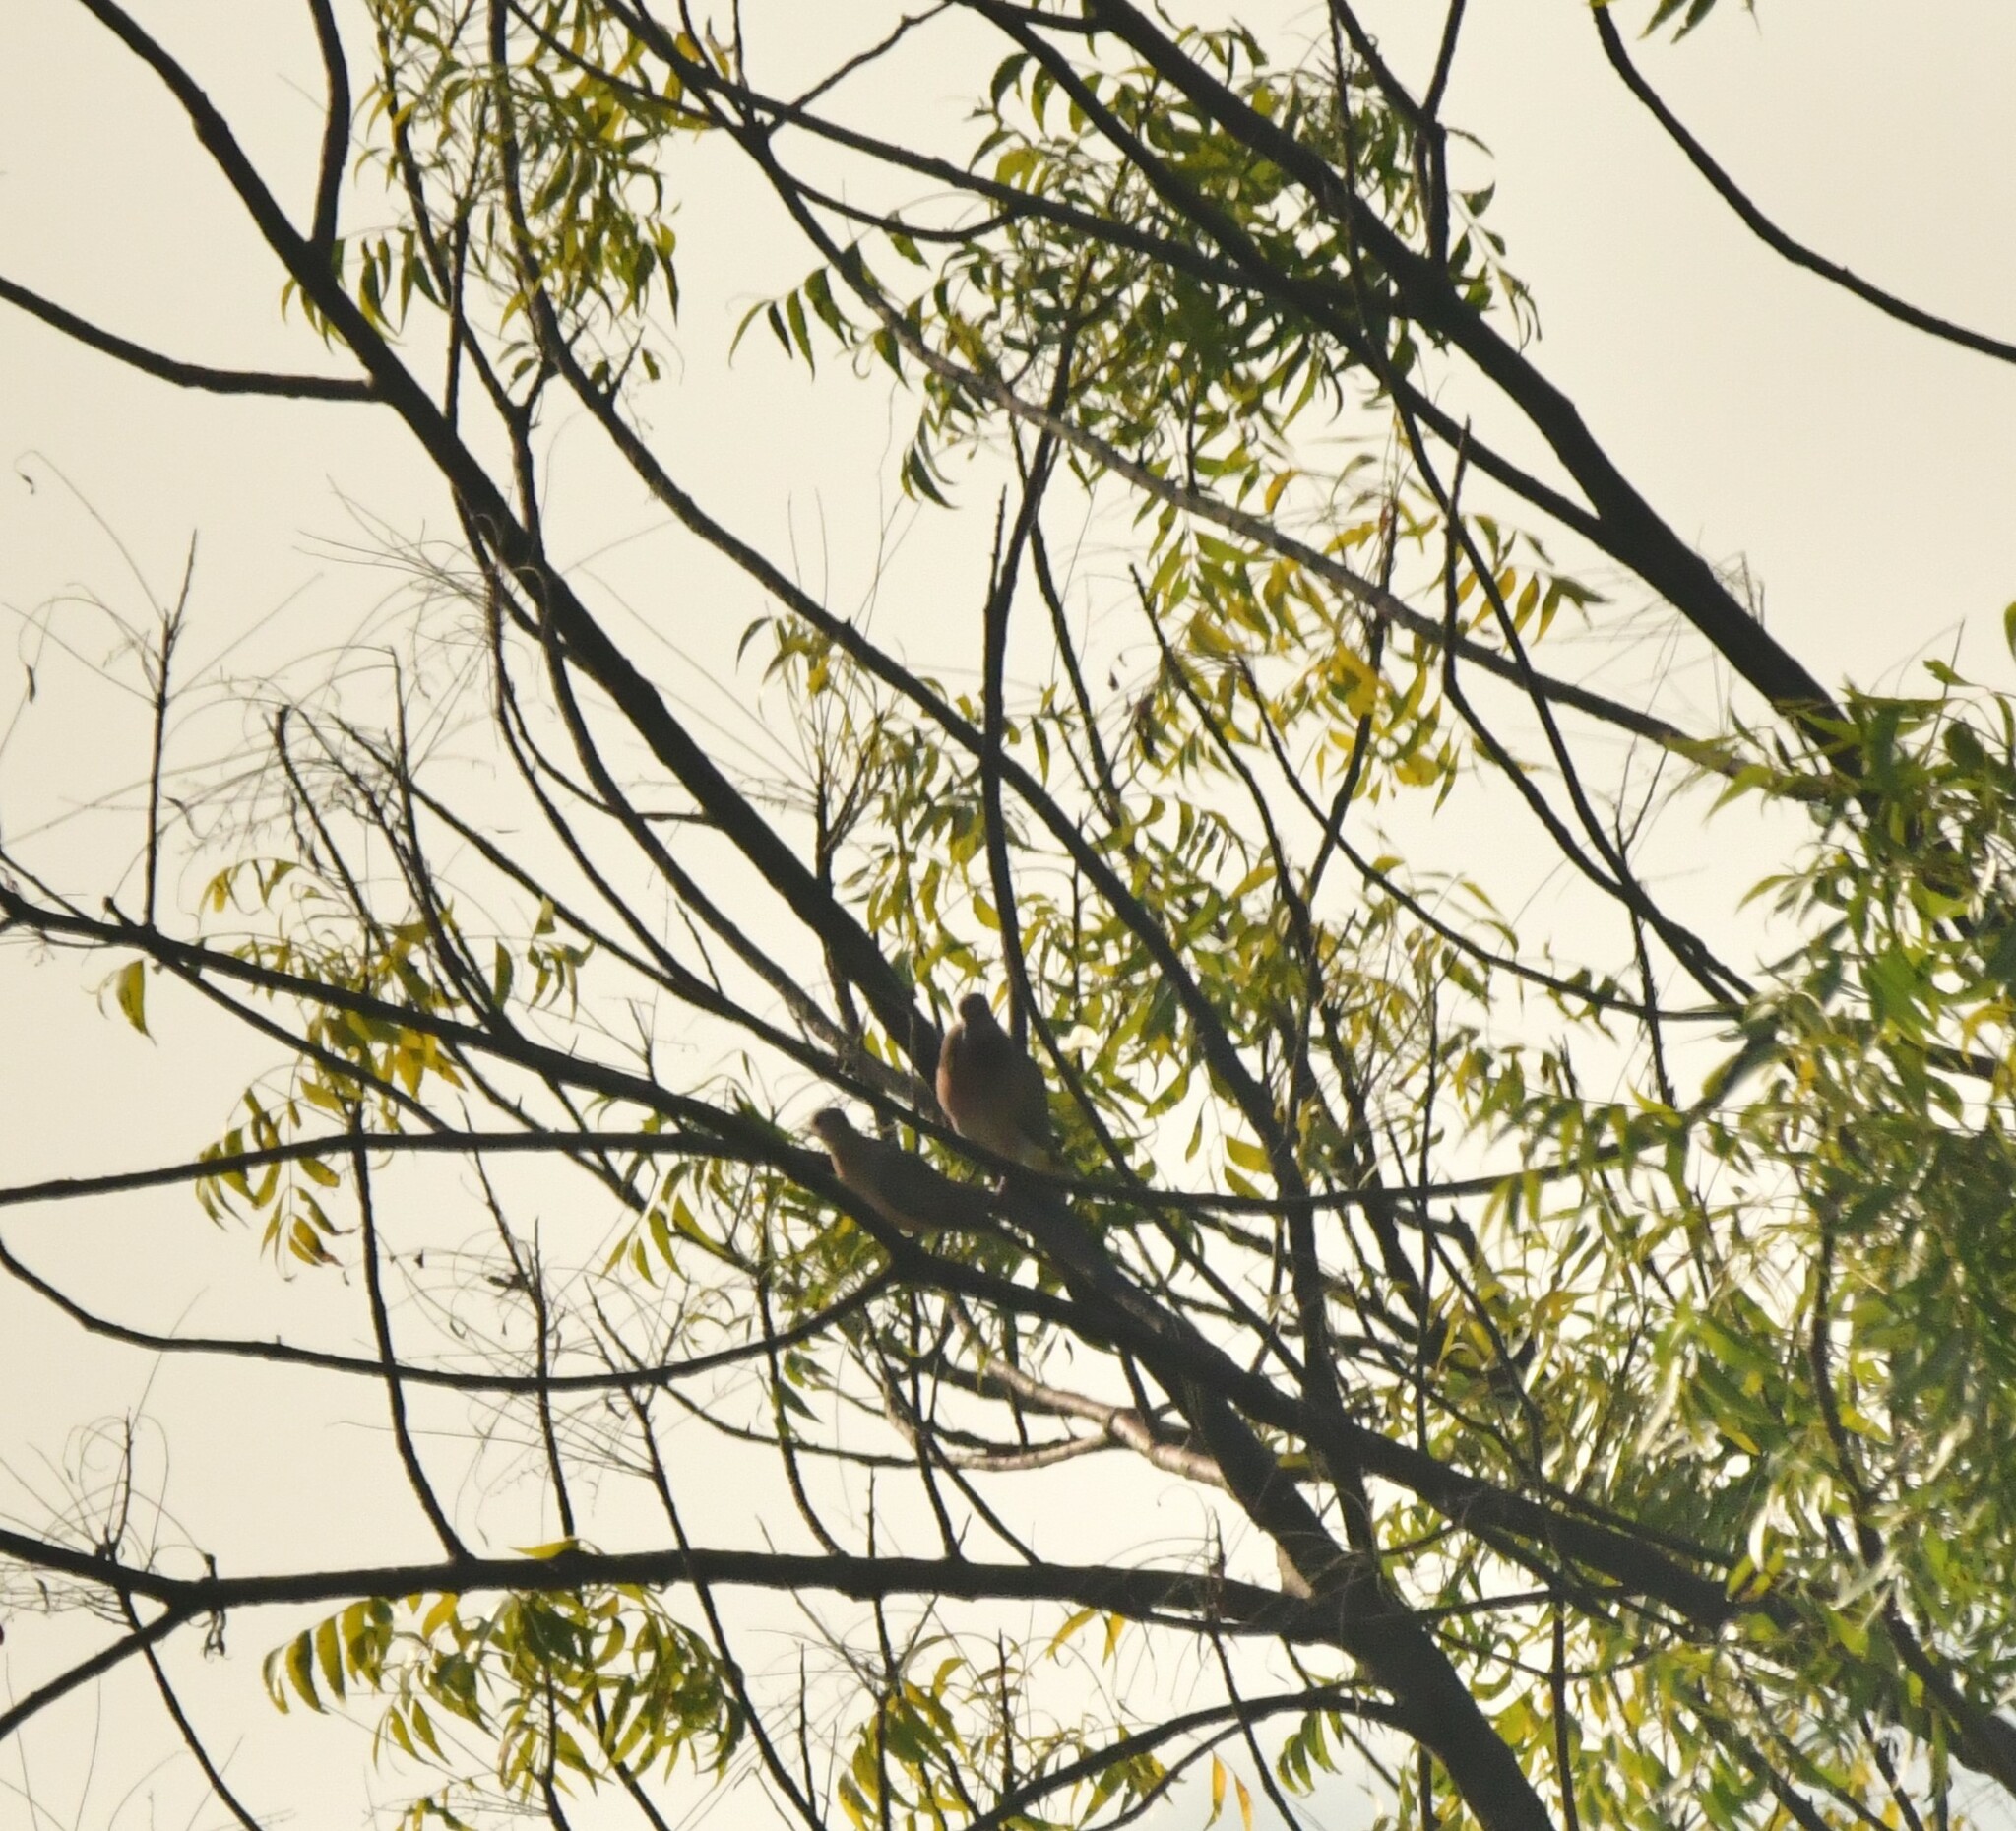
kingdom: Animalia
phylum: Chordata
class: Aves
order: Columbiformes
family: Columbidae
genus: Spilopelia
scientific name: Spilopelia senegalensis
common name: Laughing dove
